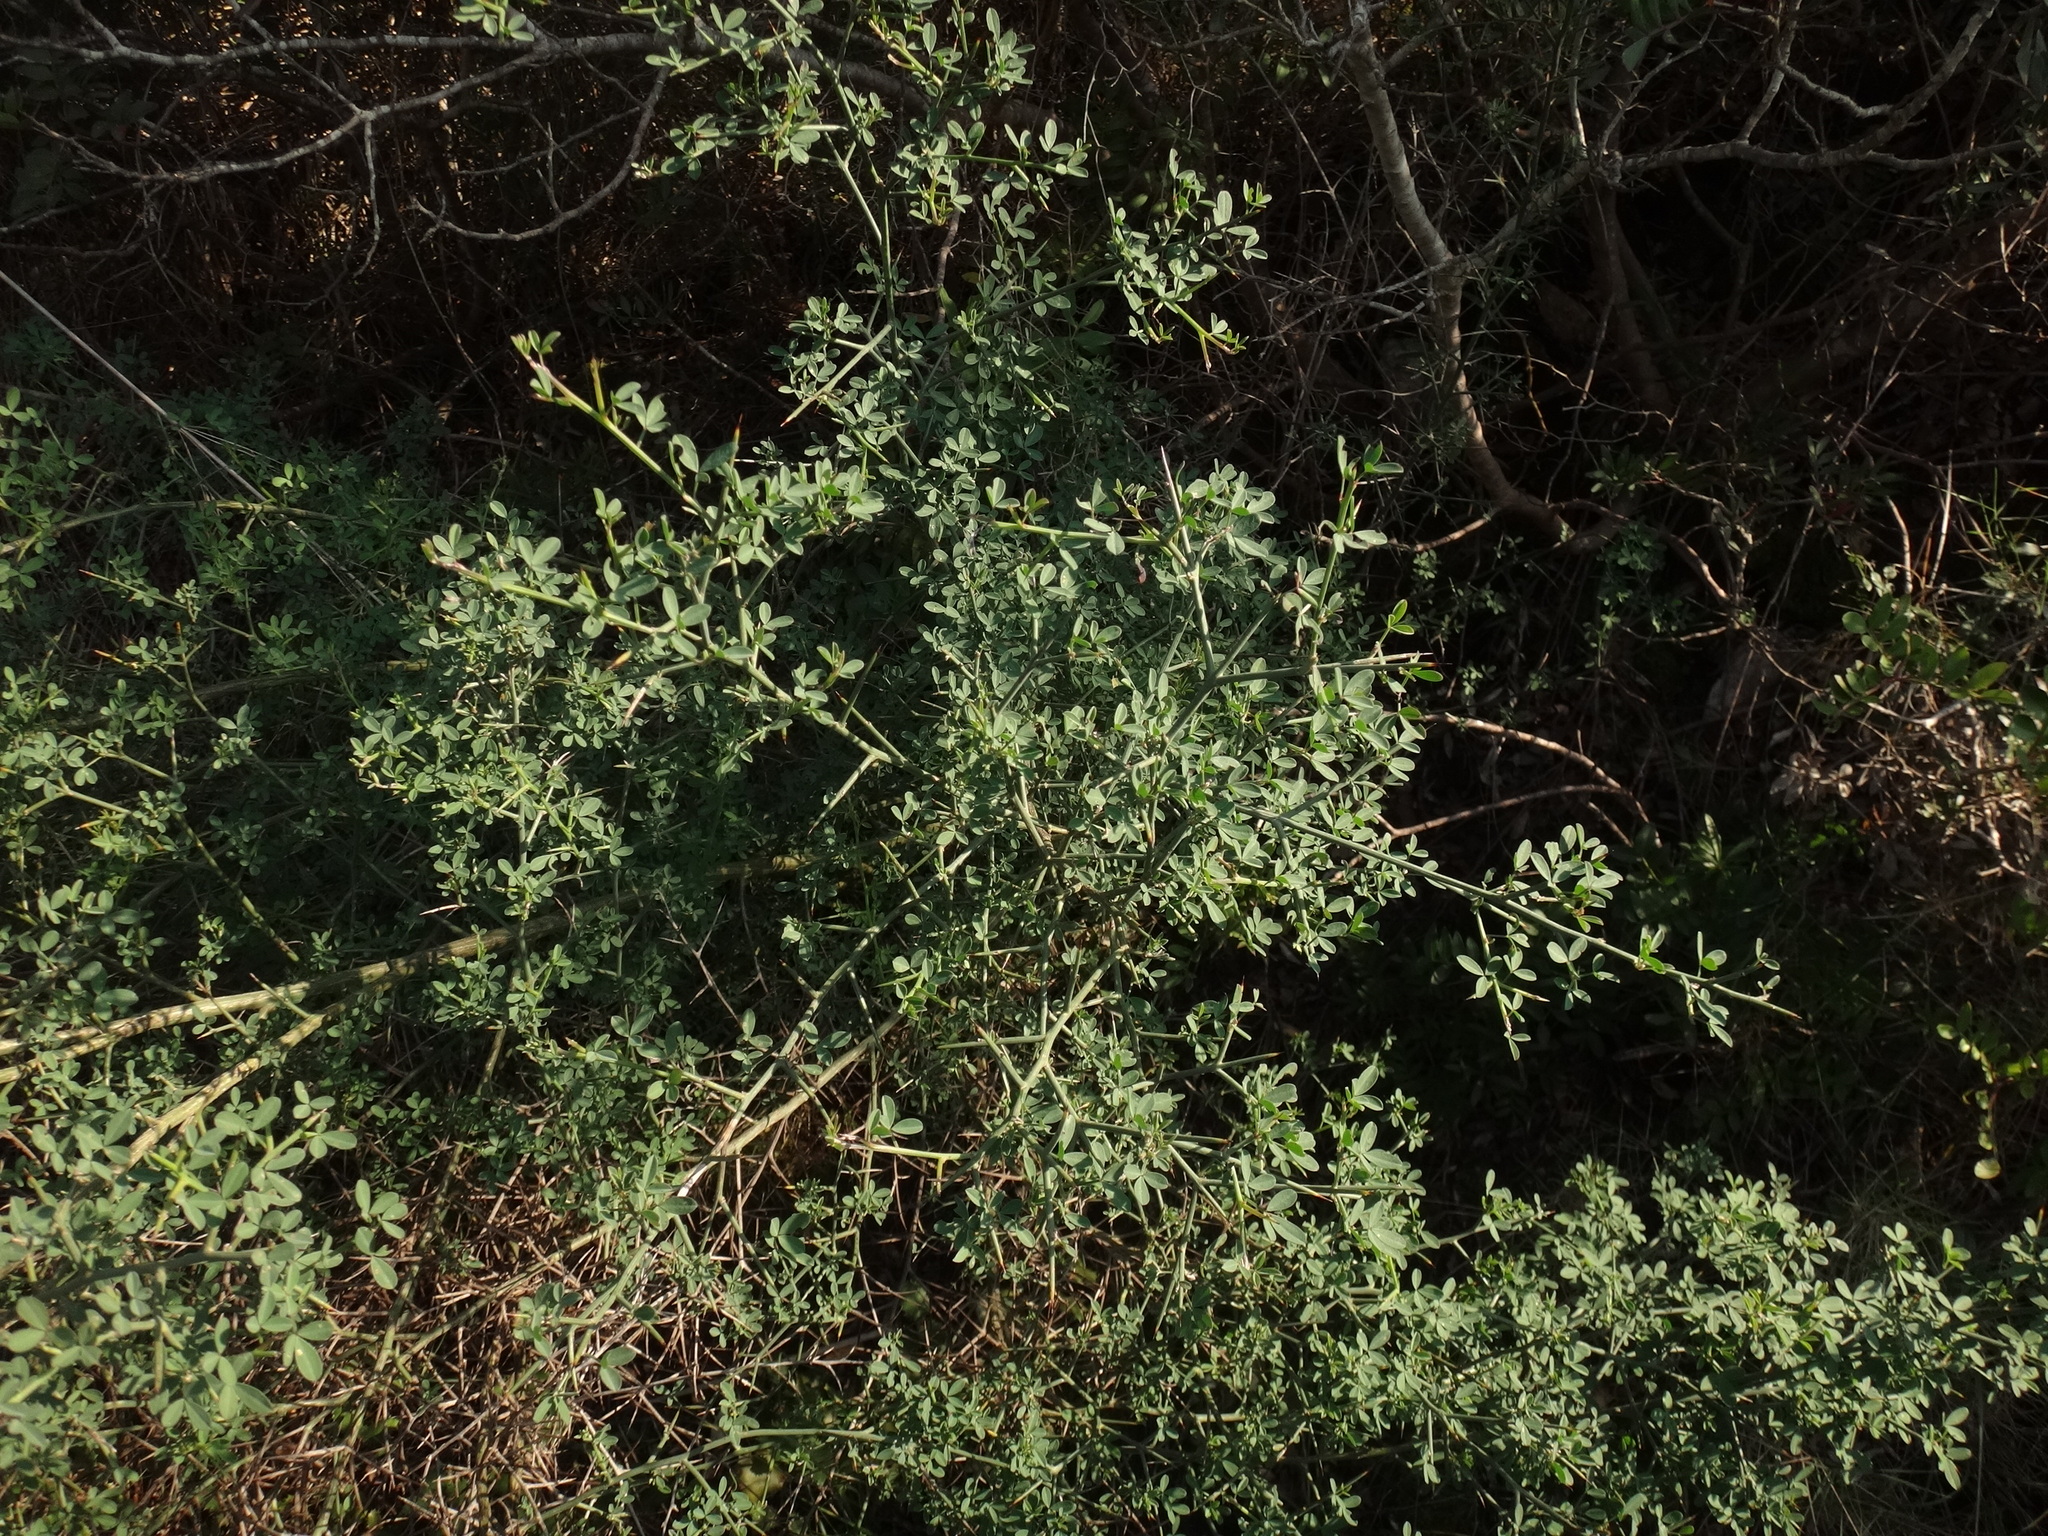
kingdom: Plantae
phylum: Tracheophyta
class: Magnoliopsida
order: Fabales
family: Fabaceae
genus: Calicotome
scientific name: Calicotome spinosa
